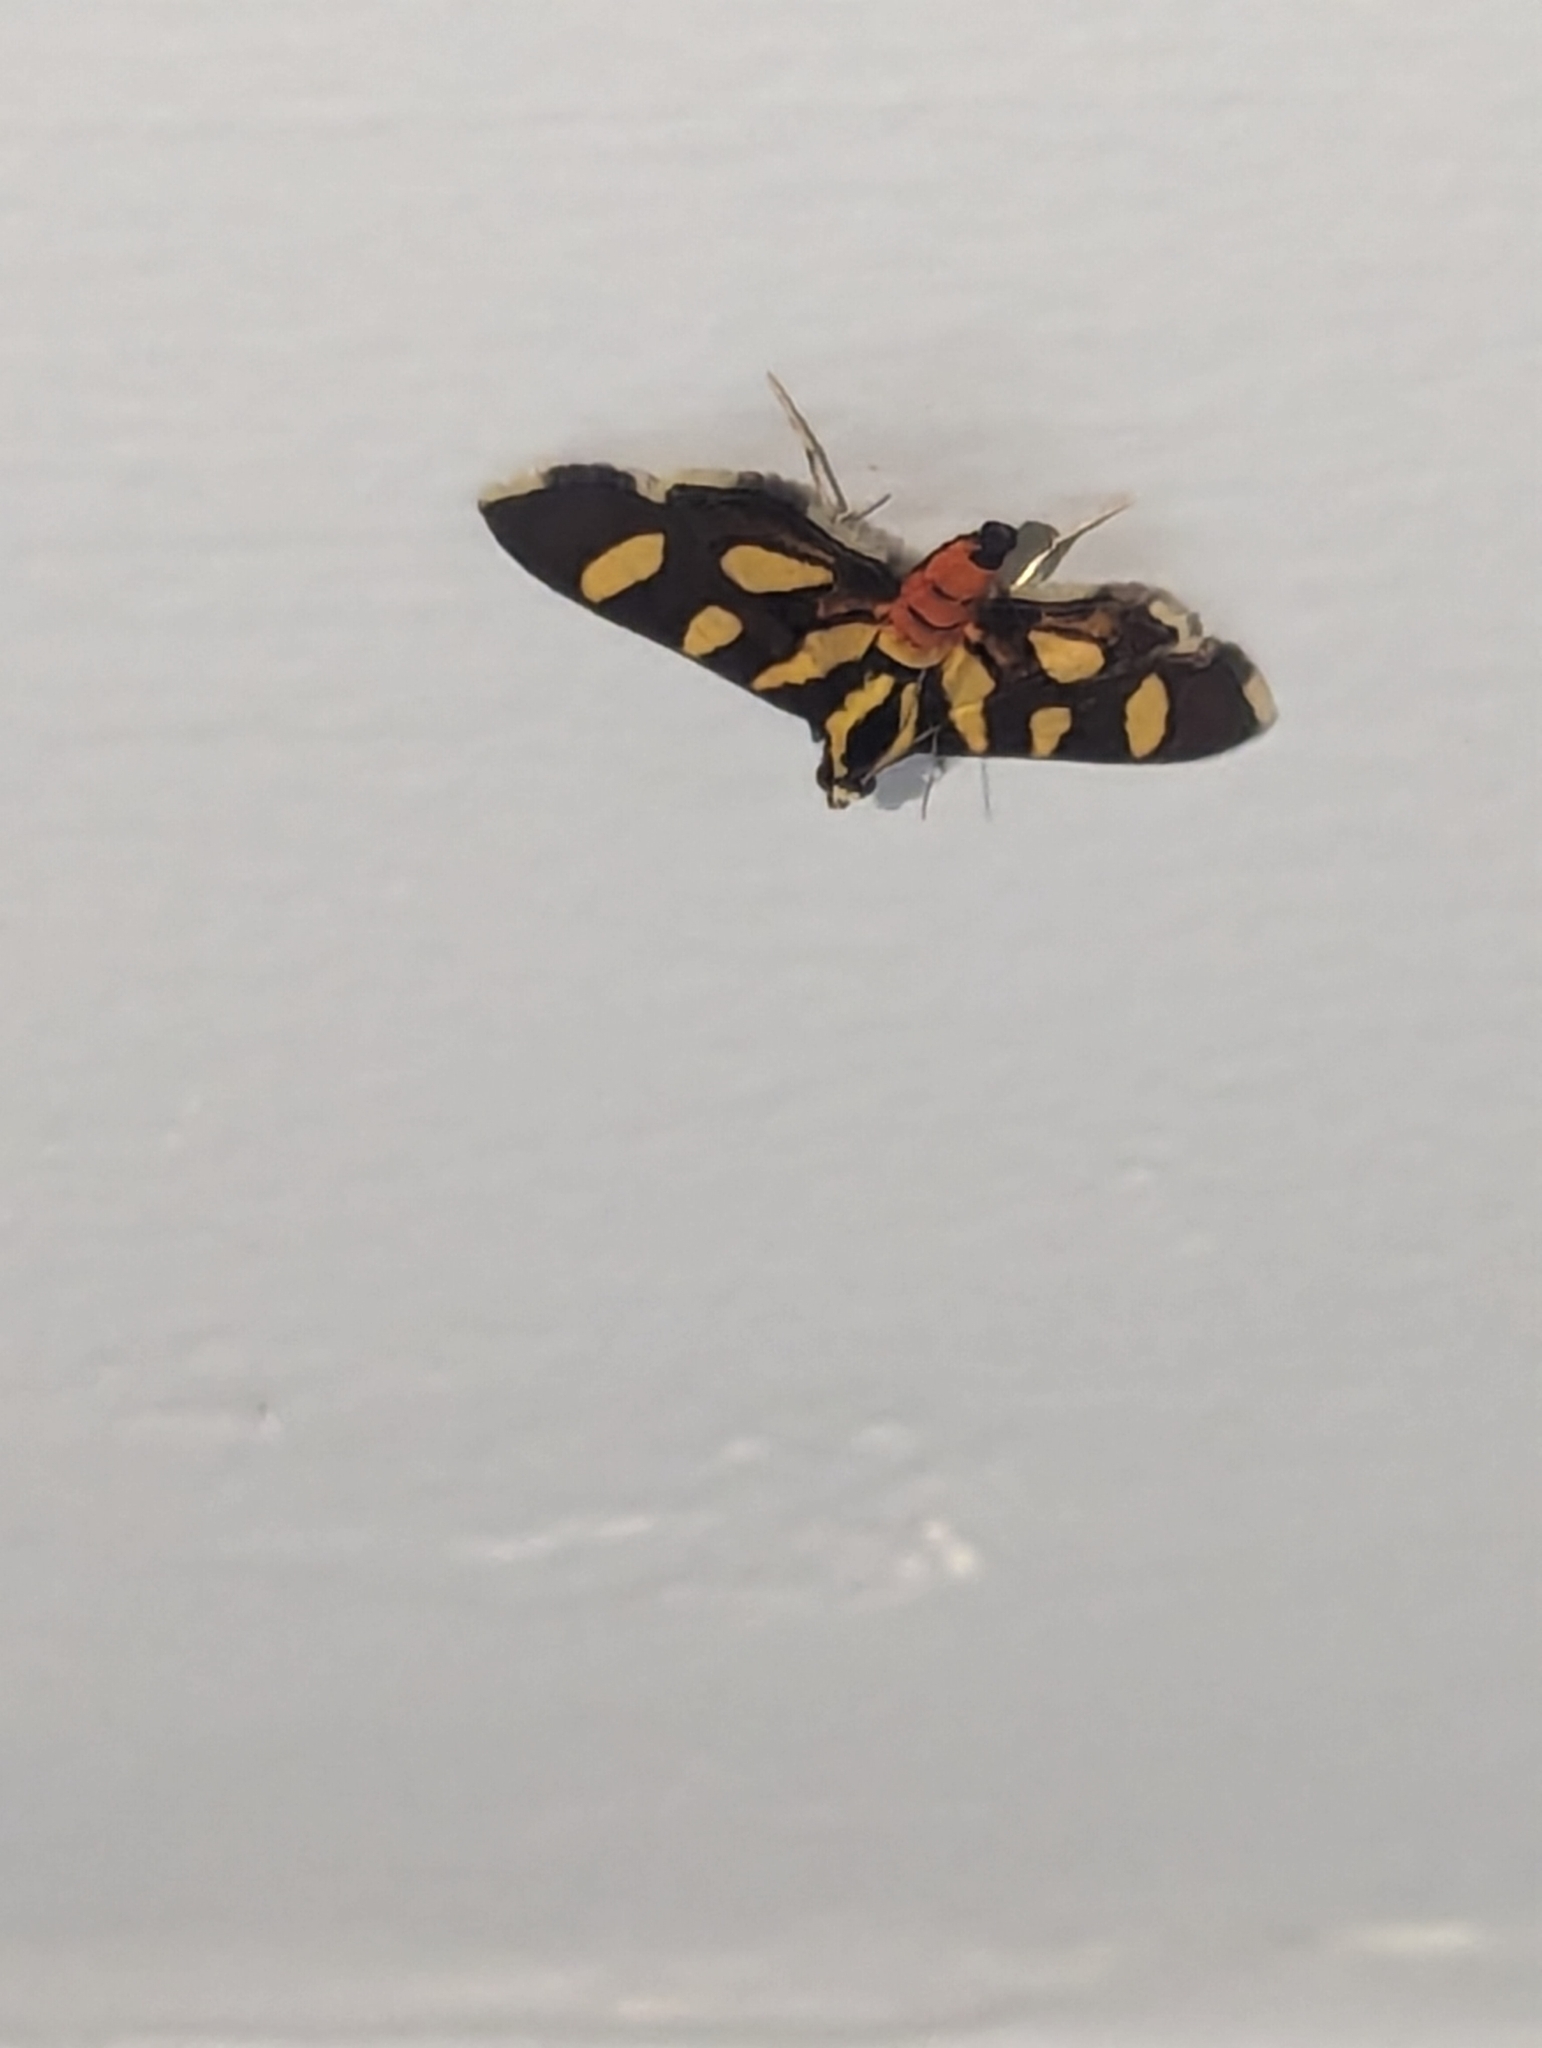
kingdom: Animalia
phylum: Arthropoda
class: Insecta
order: Lepidoptera
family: Crambidae
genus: Syngamia
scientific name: Syngamia florella
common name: Orange-spotted flower moth
